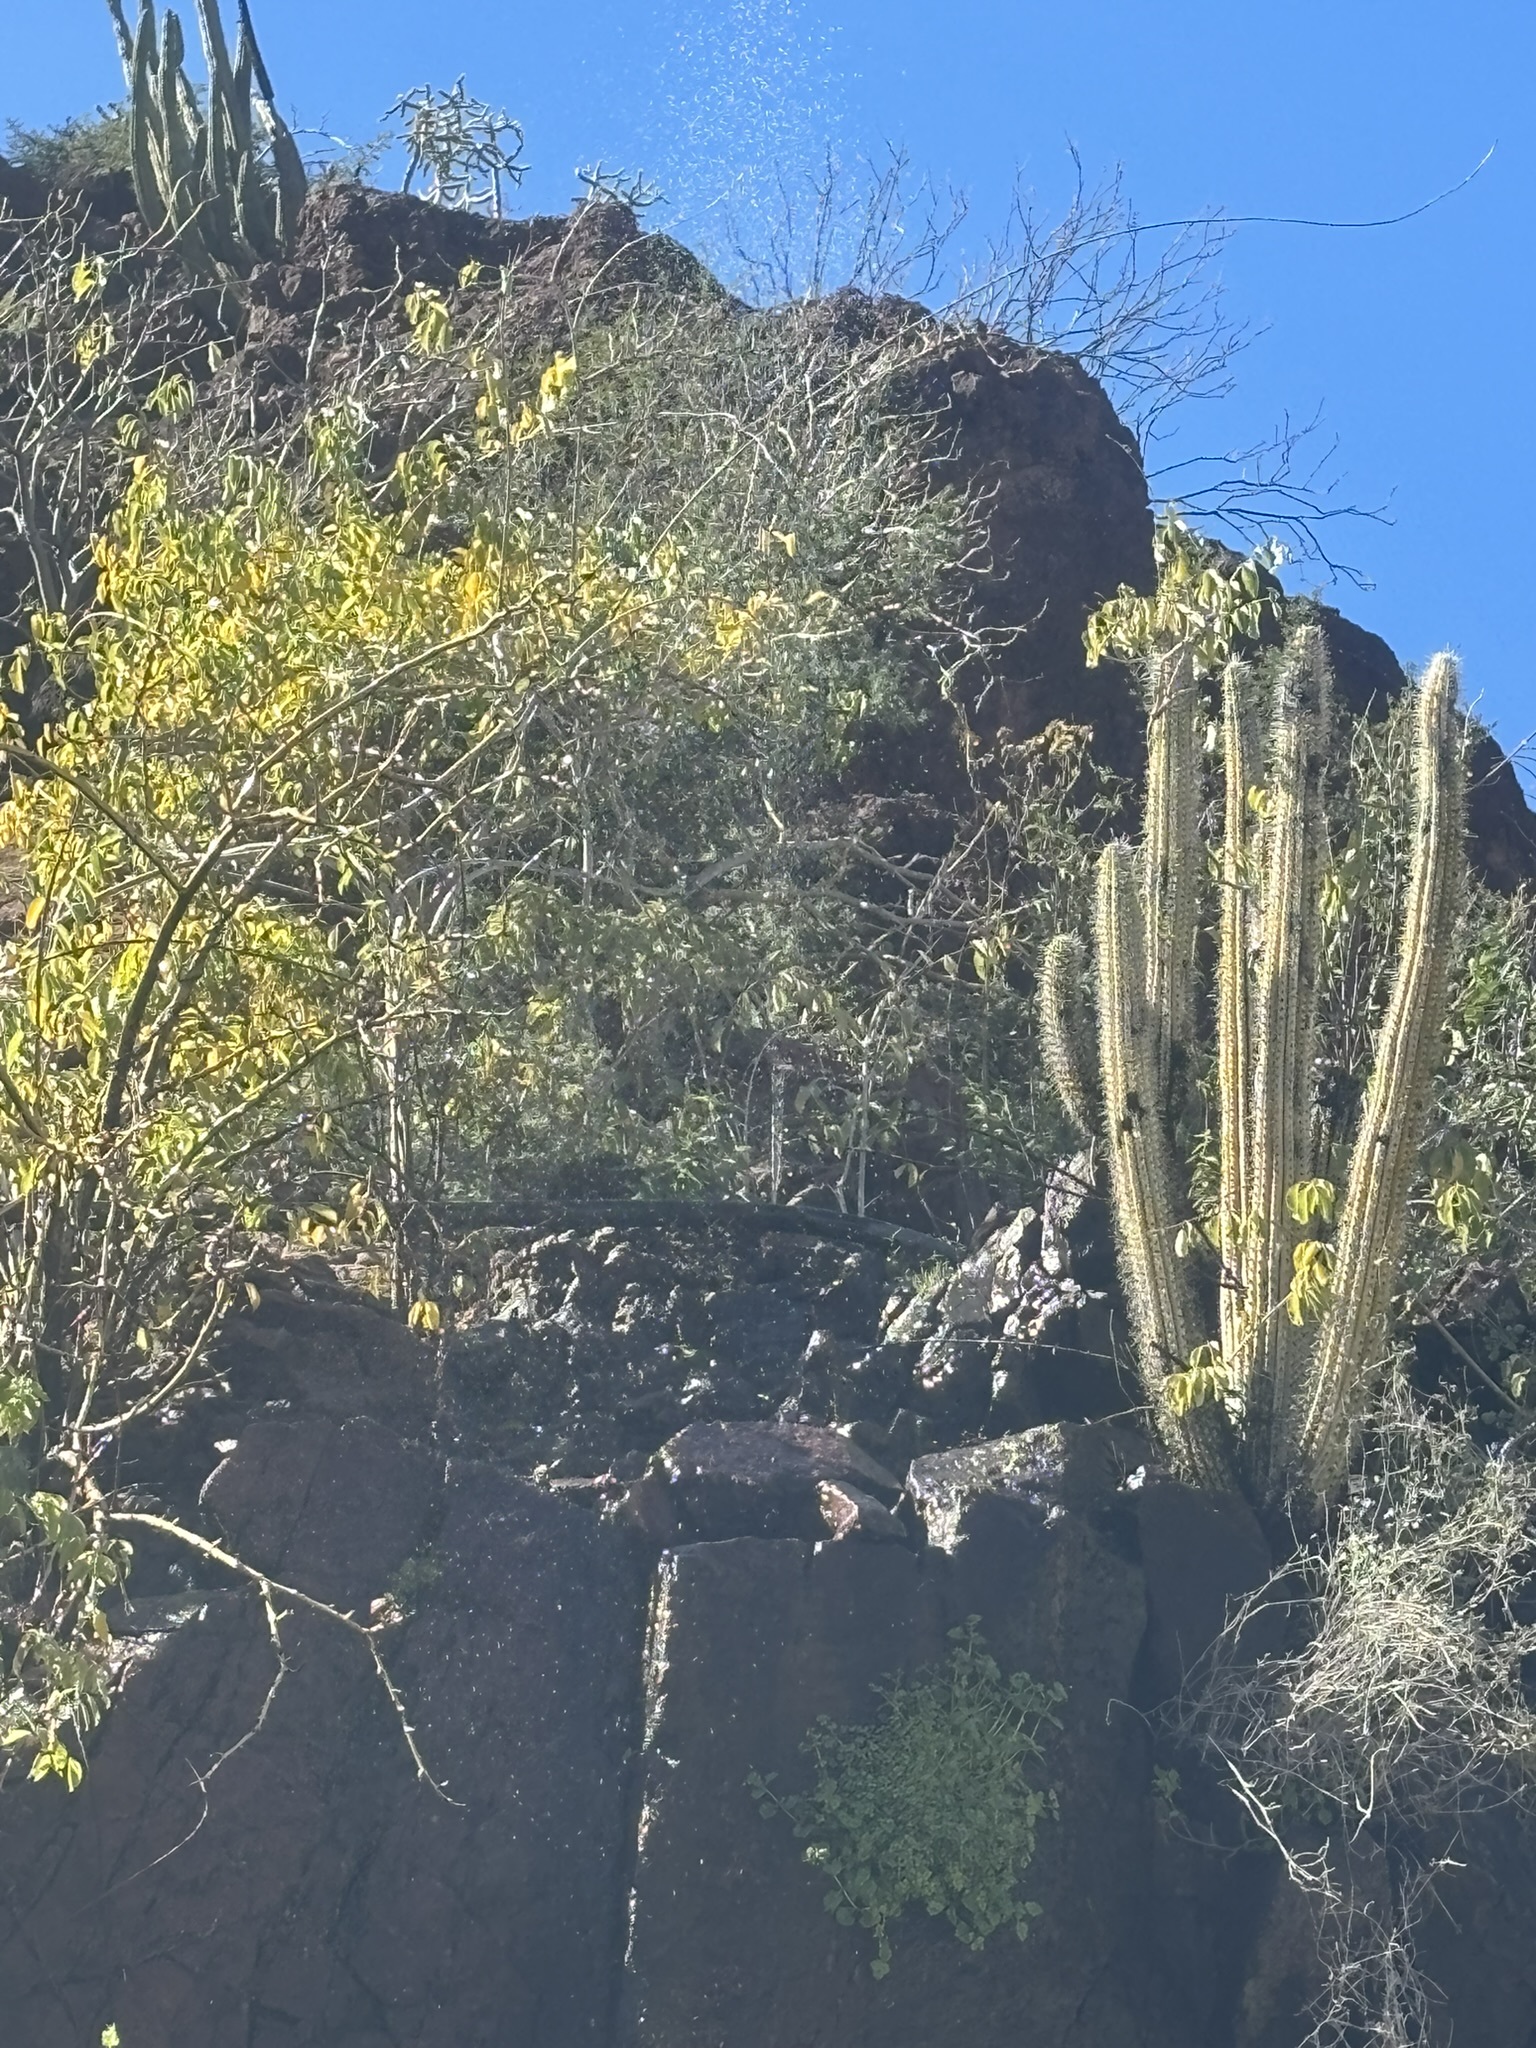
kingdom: Plantae
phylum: Tracheophyta
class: Magnoliopsida
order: Caryophyllales
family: Cactaceae
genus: Stenocereus
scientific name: Stenocereus thurberi
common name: Organ pipe cactus
